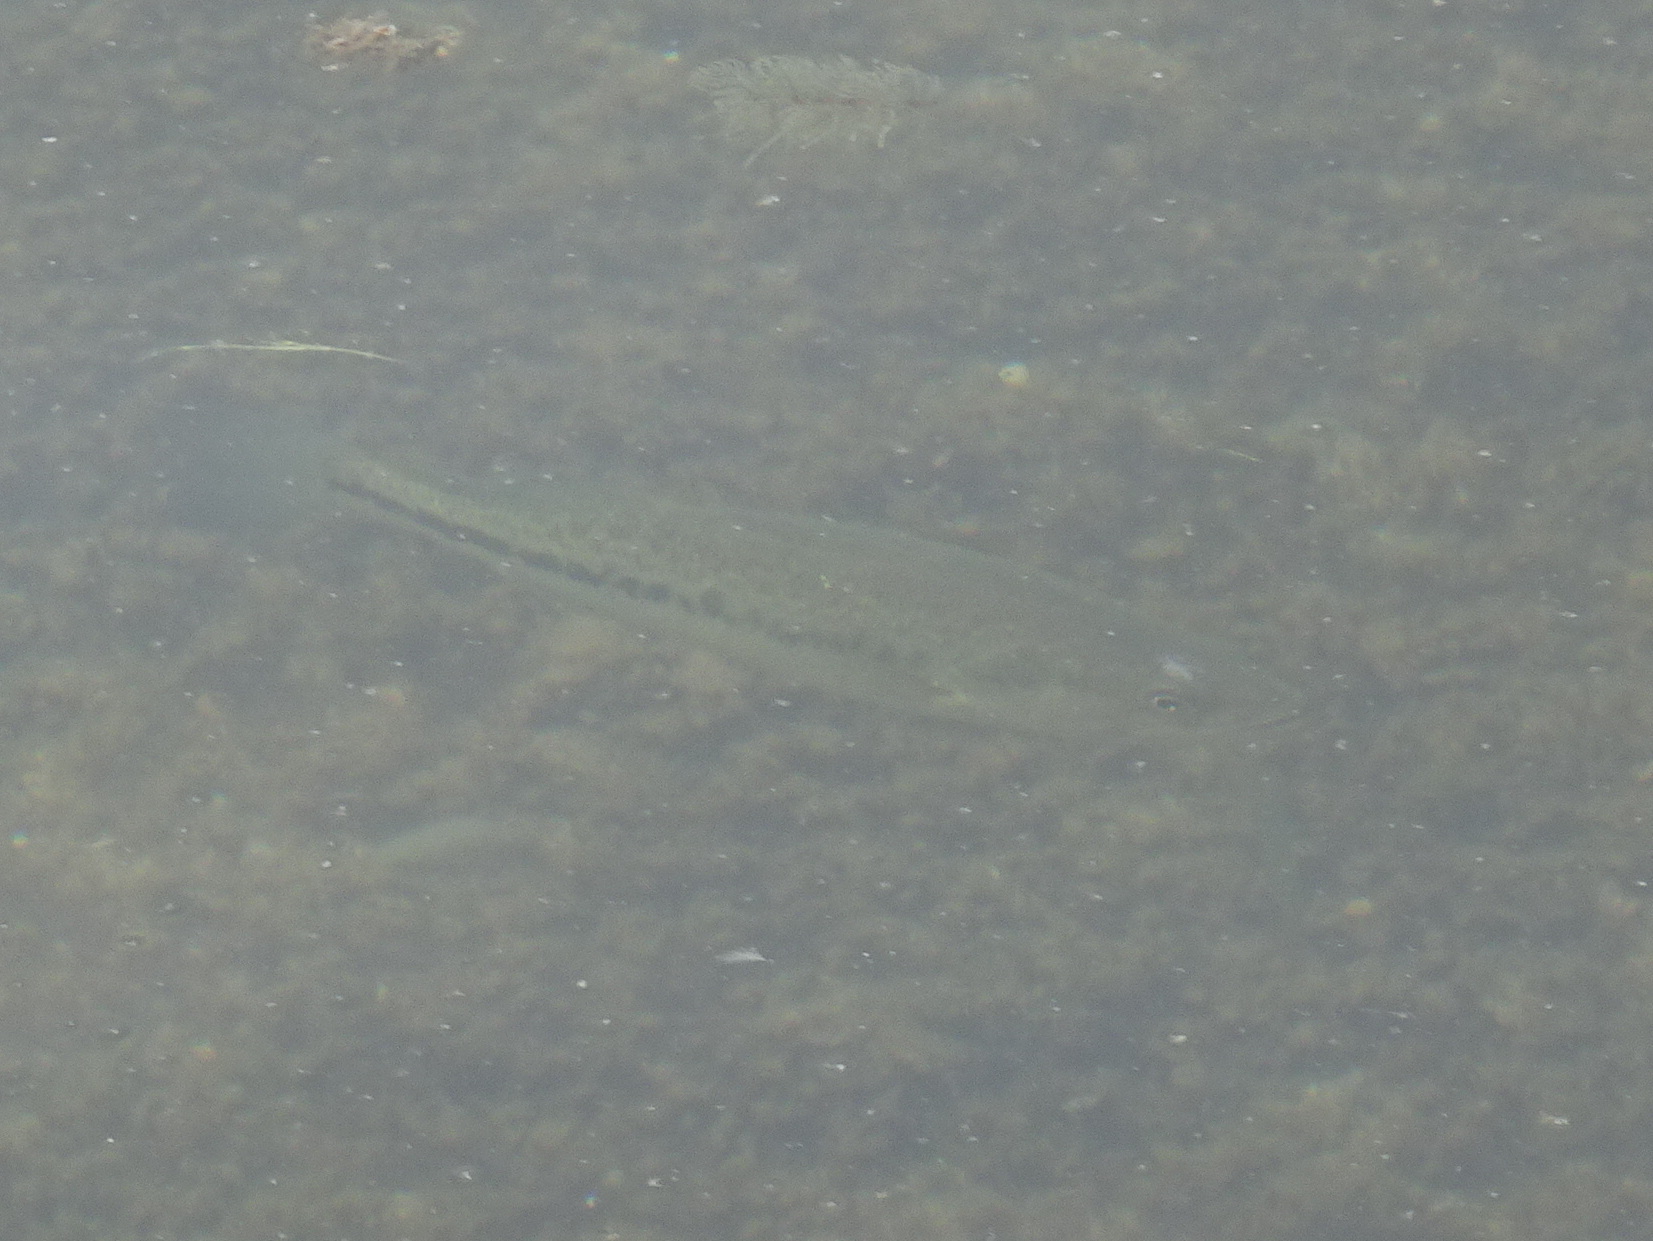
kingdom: Animalia
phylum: Chordata
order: Perciformes
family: Centrarchidae
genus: Micropterus
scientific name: Micropterus
